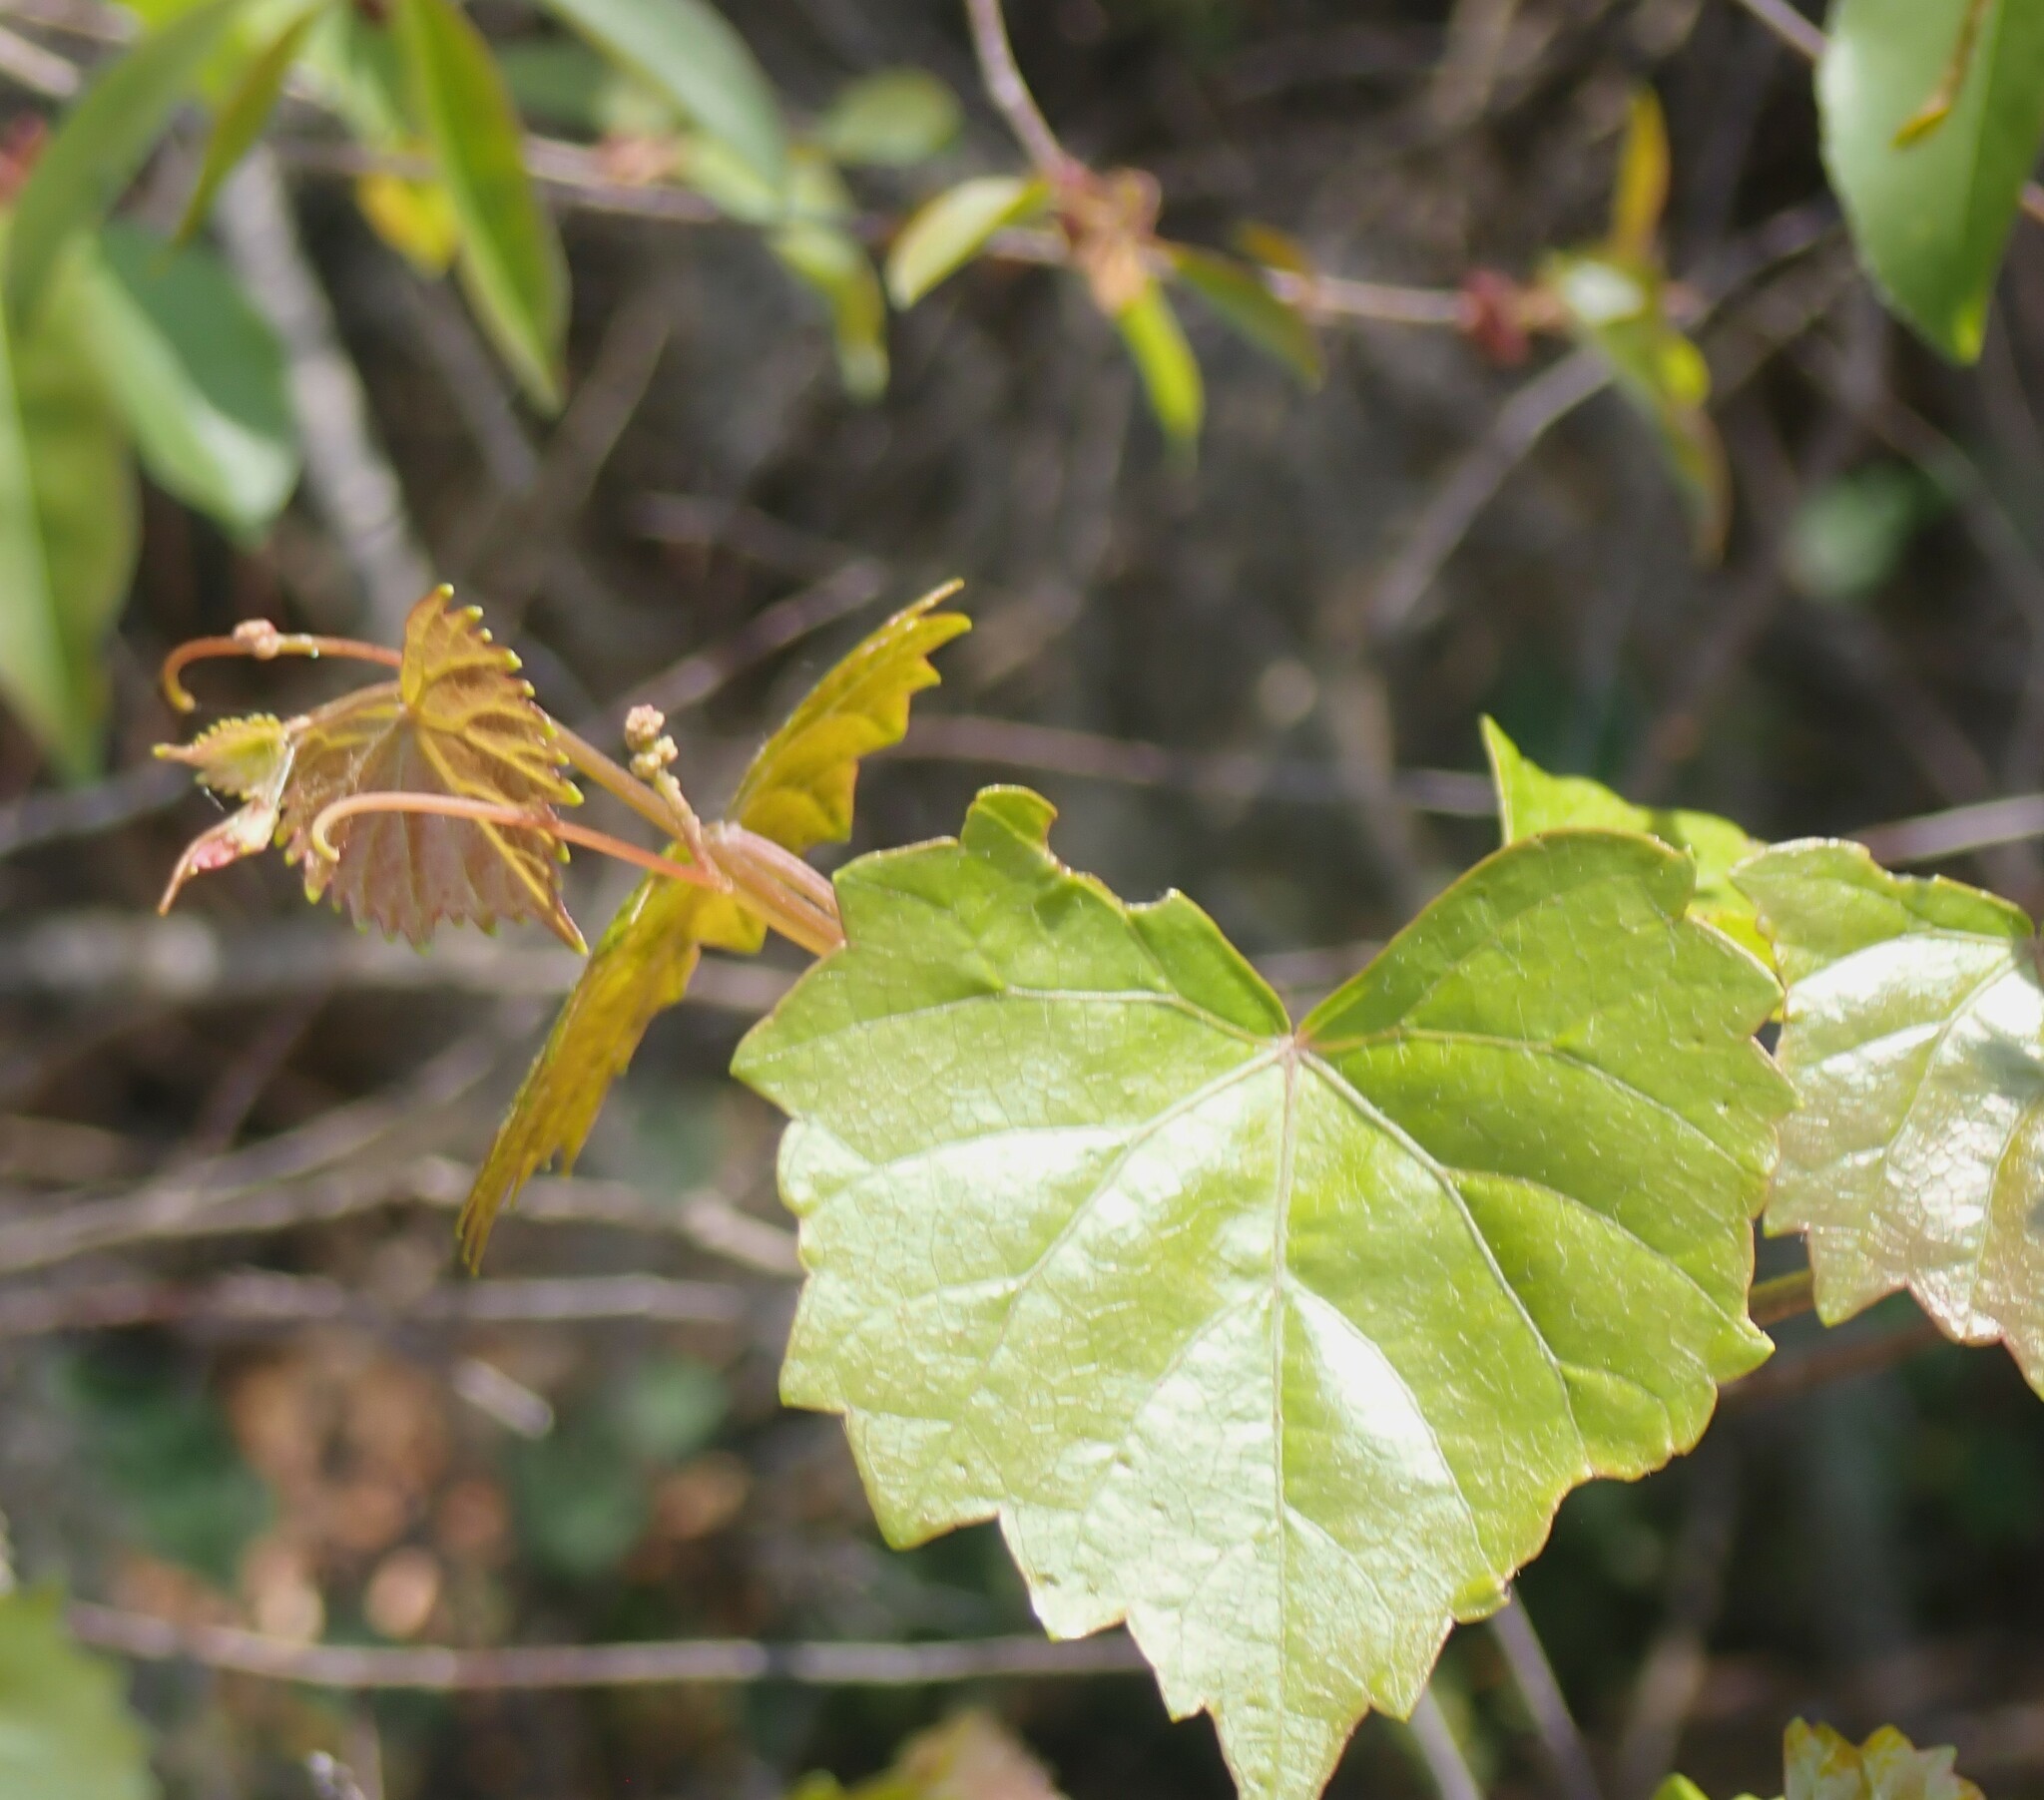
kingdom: Plantae
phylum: Tracheophyta
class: Magnoliopsida
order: Vitales
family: Vitaceae
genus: Vitis
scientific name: Vitis rotundifolia
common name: Muscadine grape
